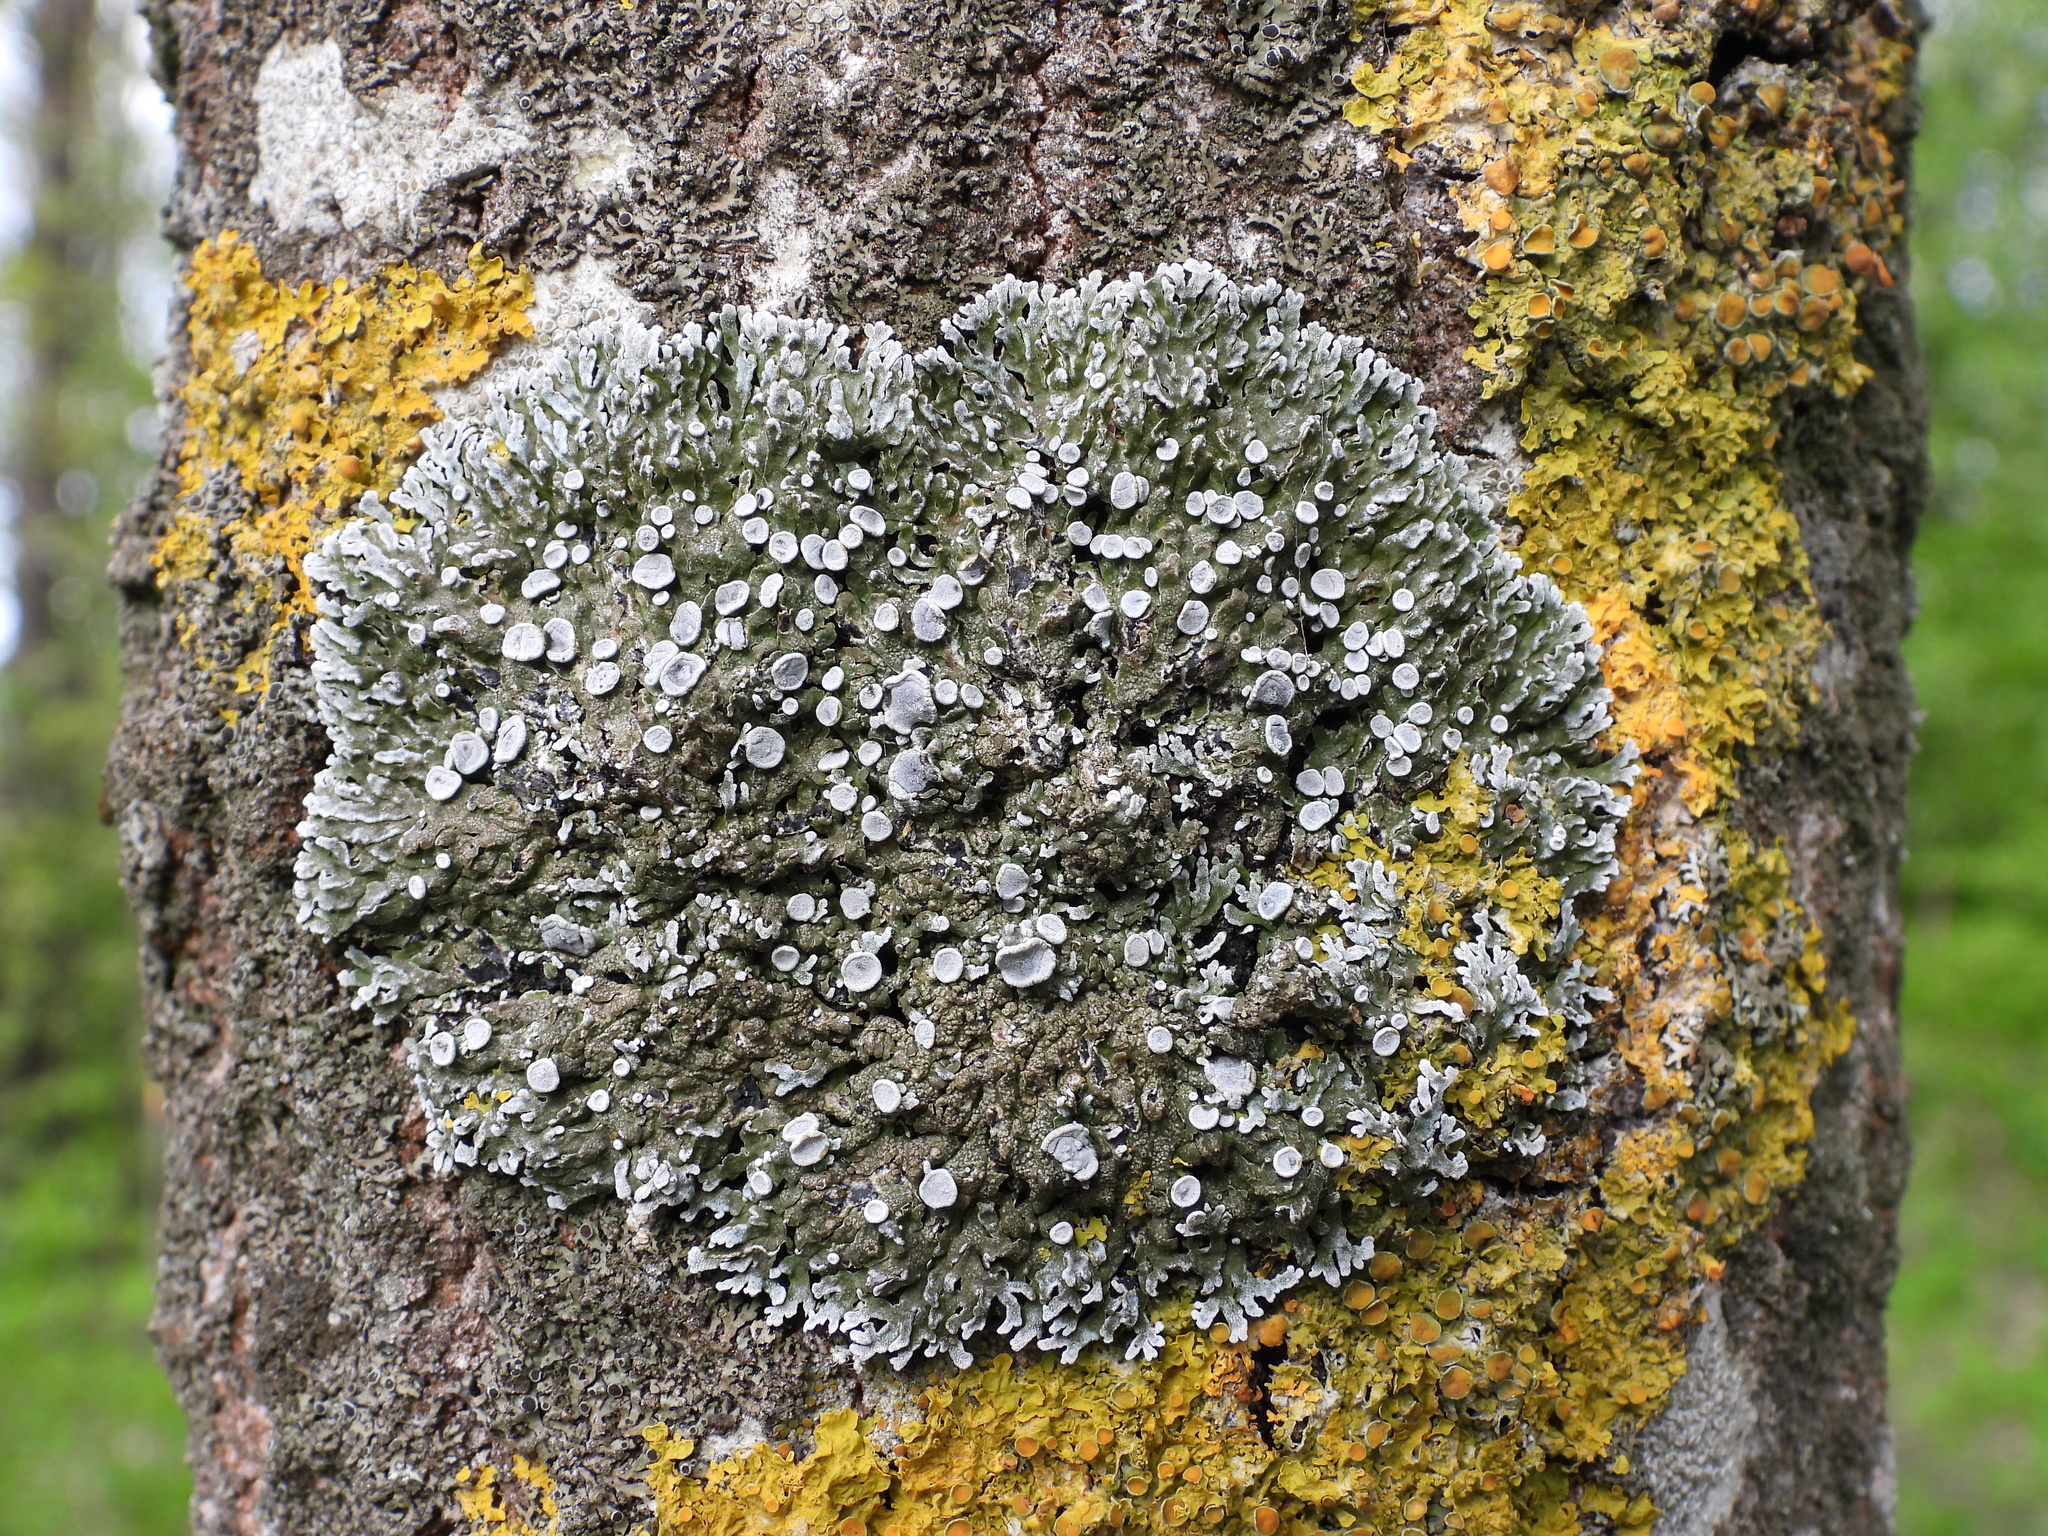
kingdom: Fungi
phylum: Ascomycota
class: Lecanoromycetes
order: Caliciales
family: Physciaceae
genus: Physconia
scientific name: Physconia distorta
